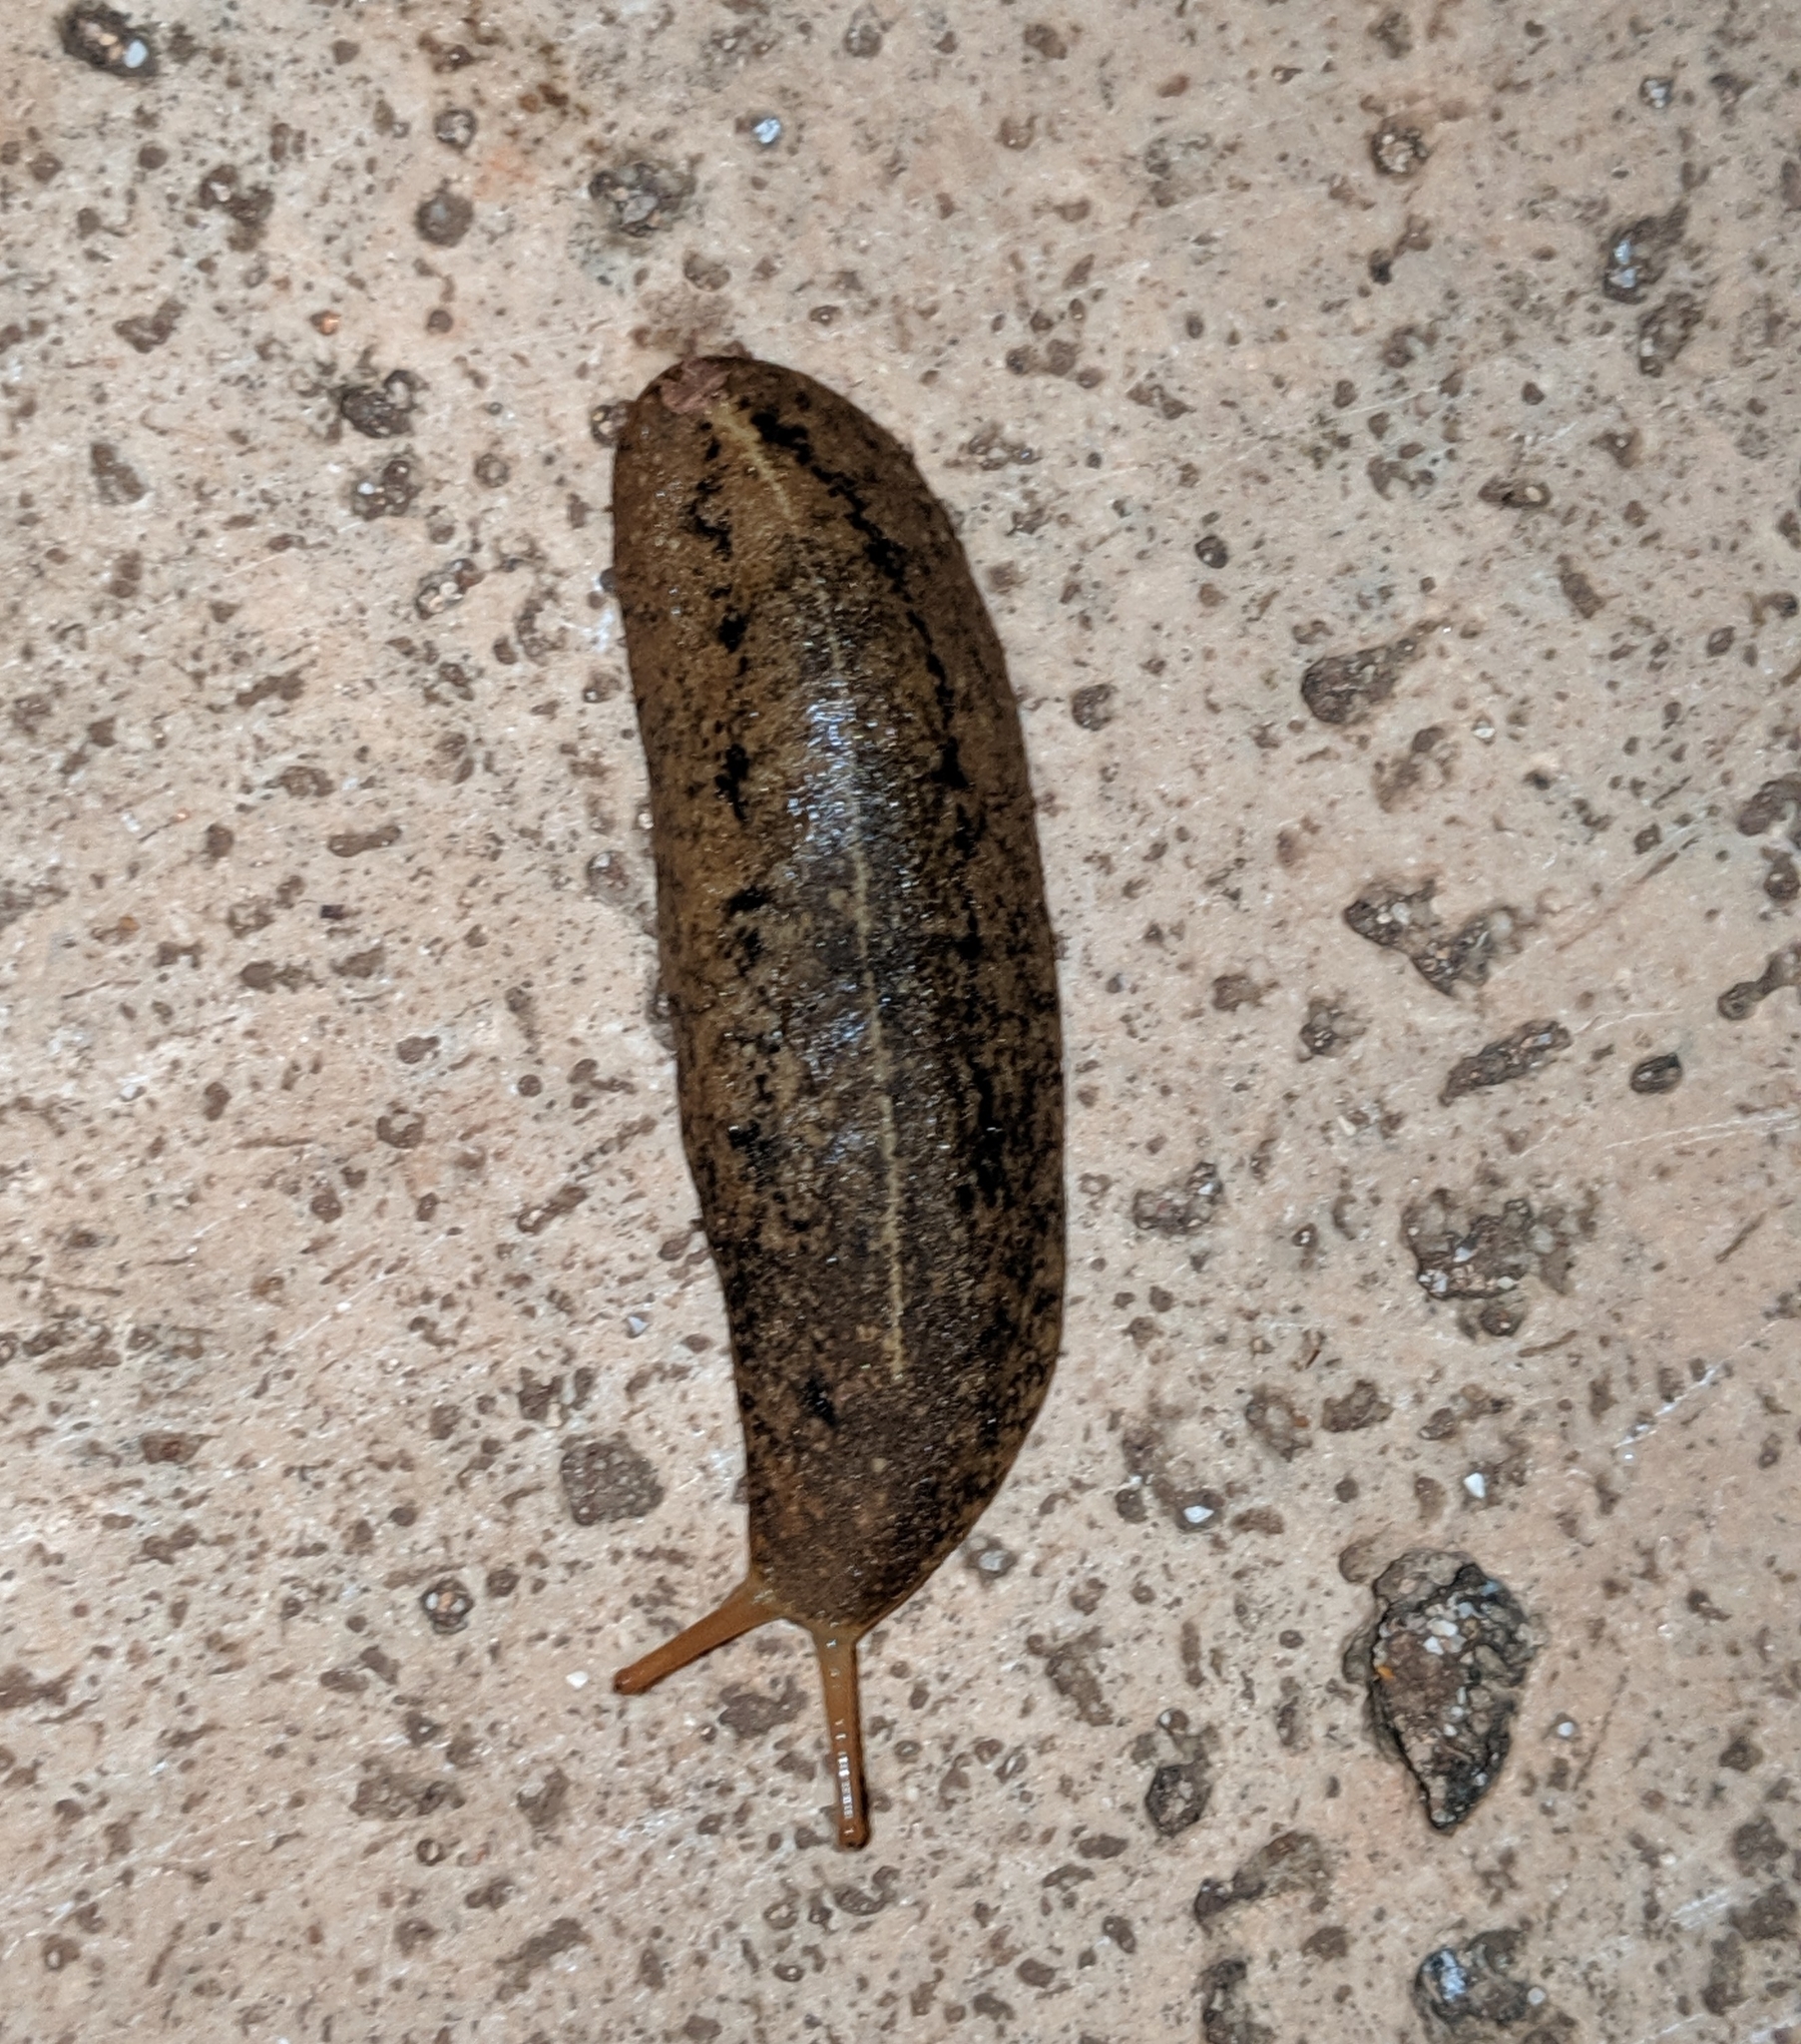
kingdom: Animalia
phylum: Mollusca
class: Gastropoda
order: Systellommatophora
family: Veronicellidae
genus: Veronicella
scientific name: Veronicella cubensis
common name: Two striped slug
